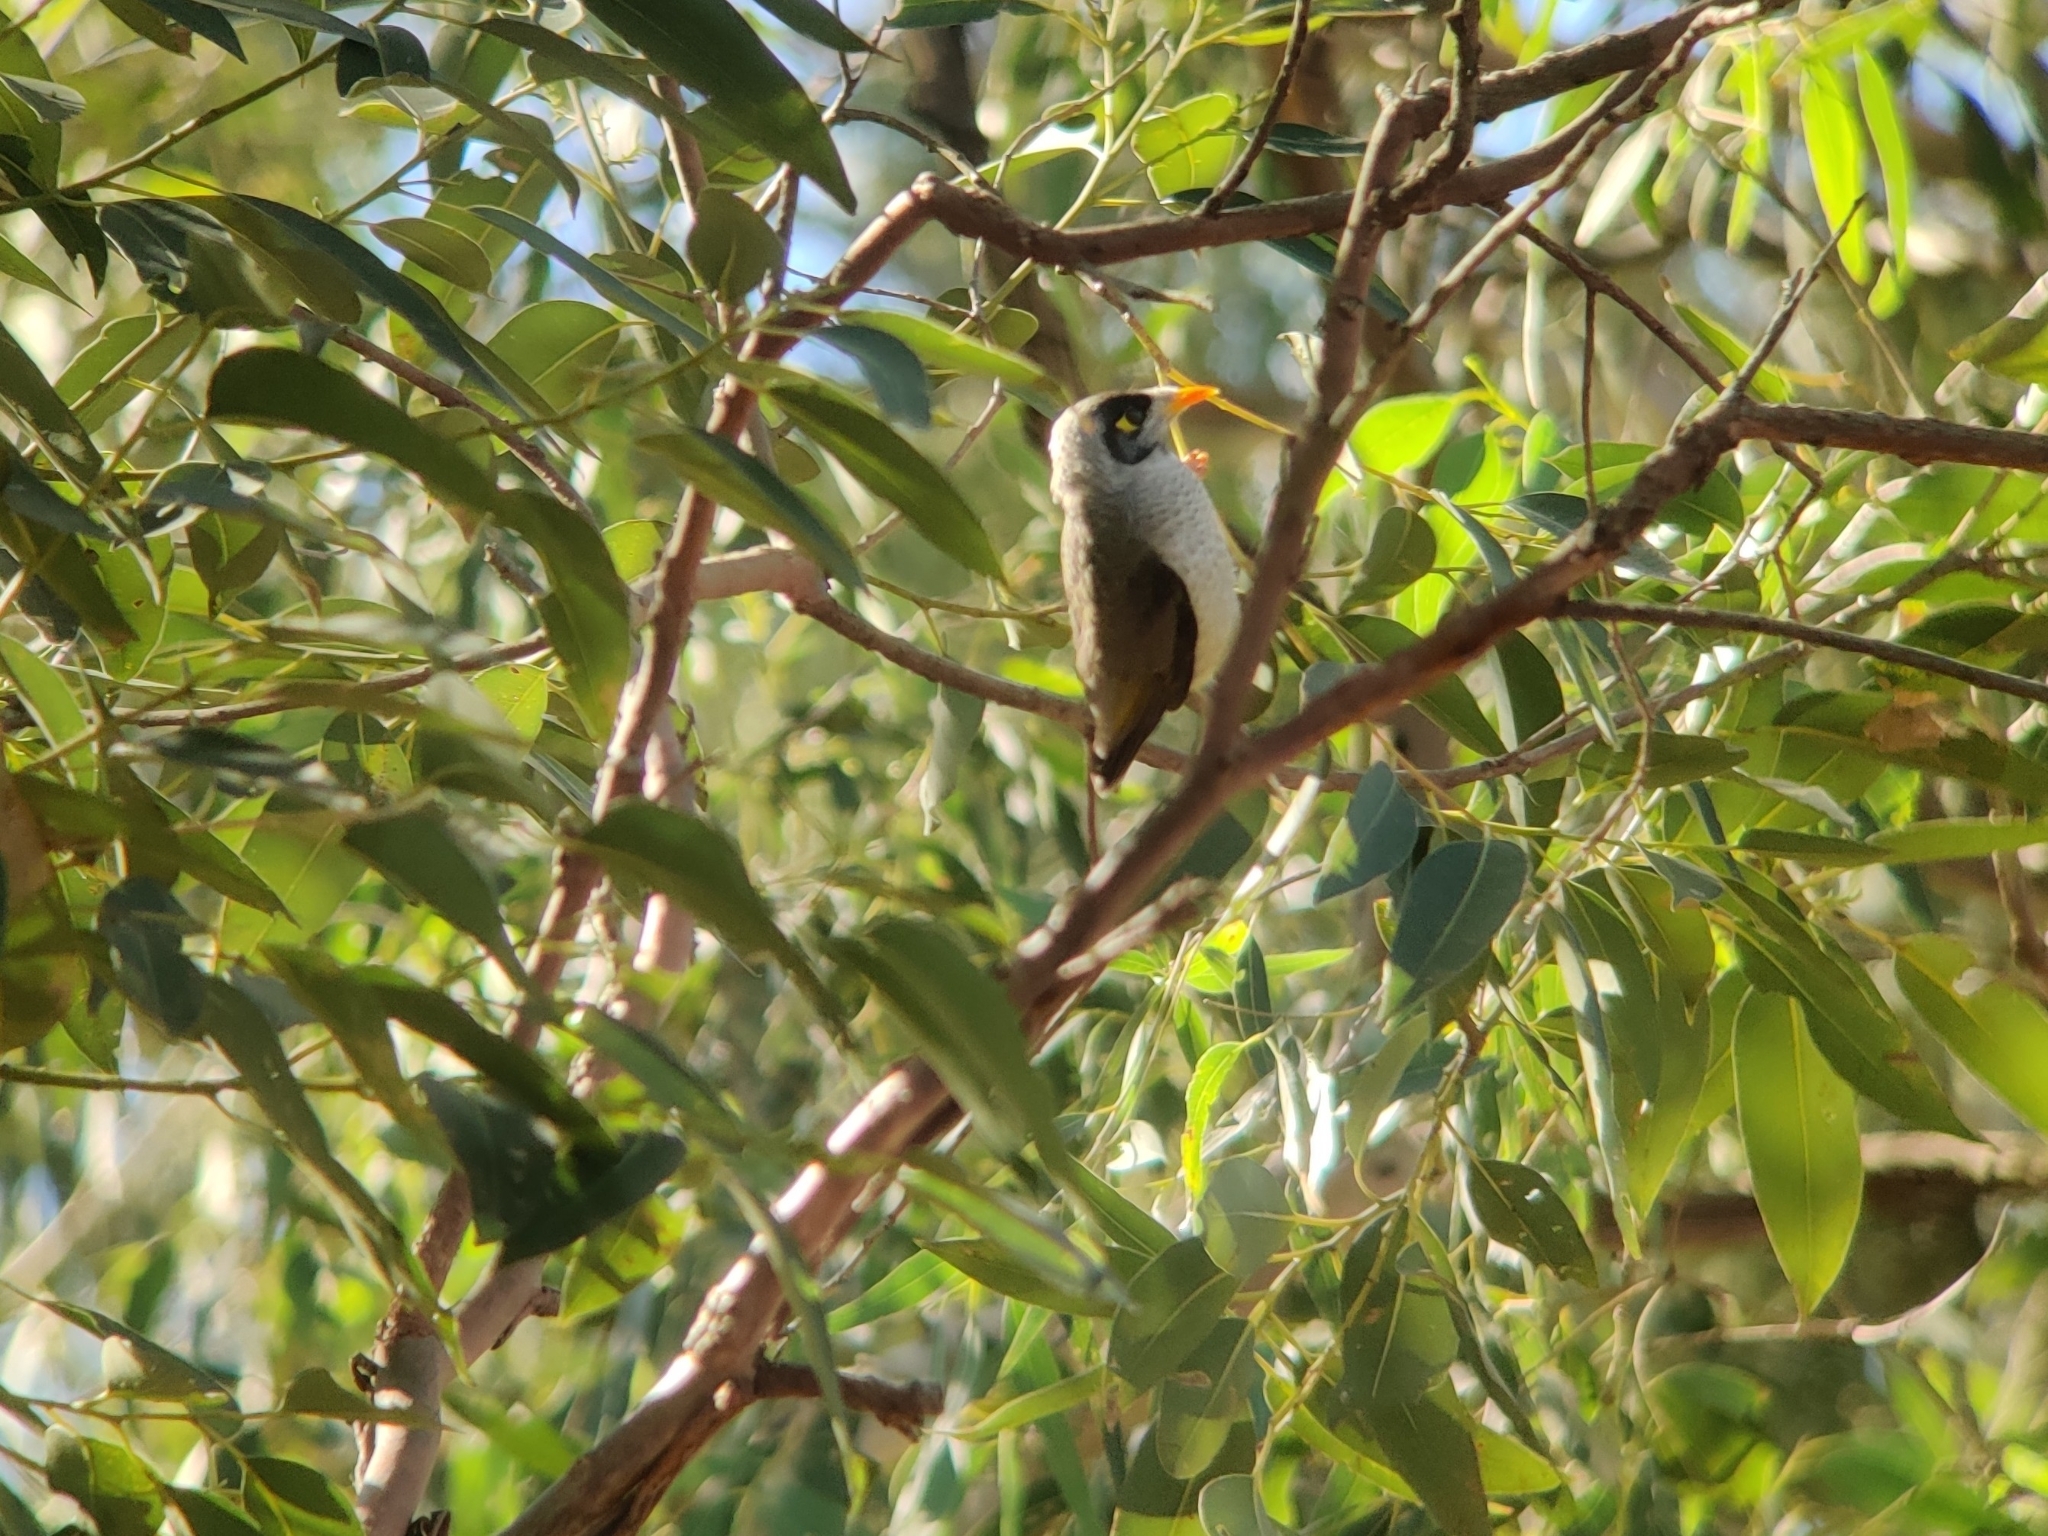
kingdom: Animalia
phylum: Chordata
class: Aves
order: Passeriformes
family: Meliphagidae
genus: Manorina
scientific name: Manorina melanocephala
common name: Noisy miner
